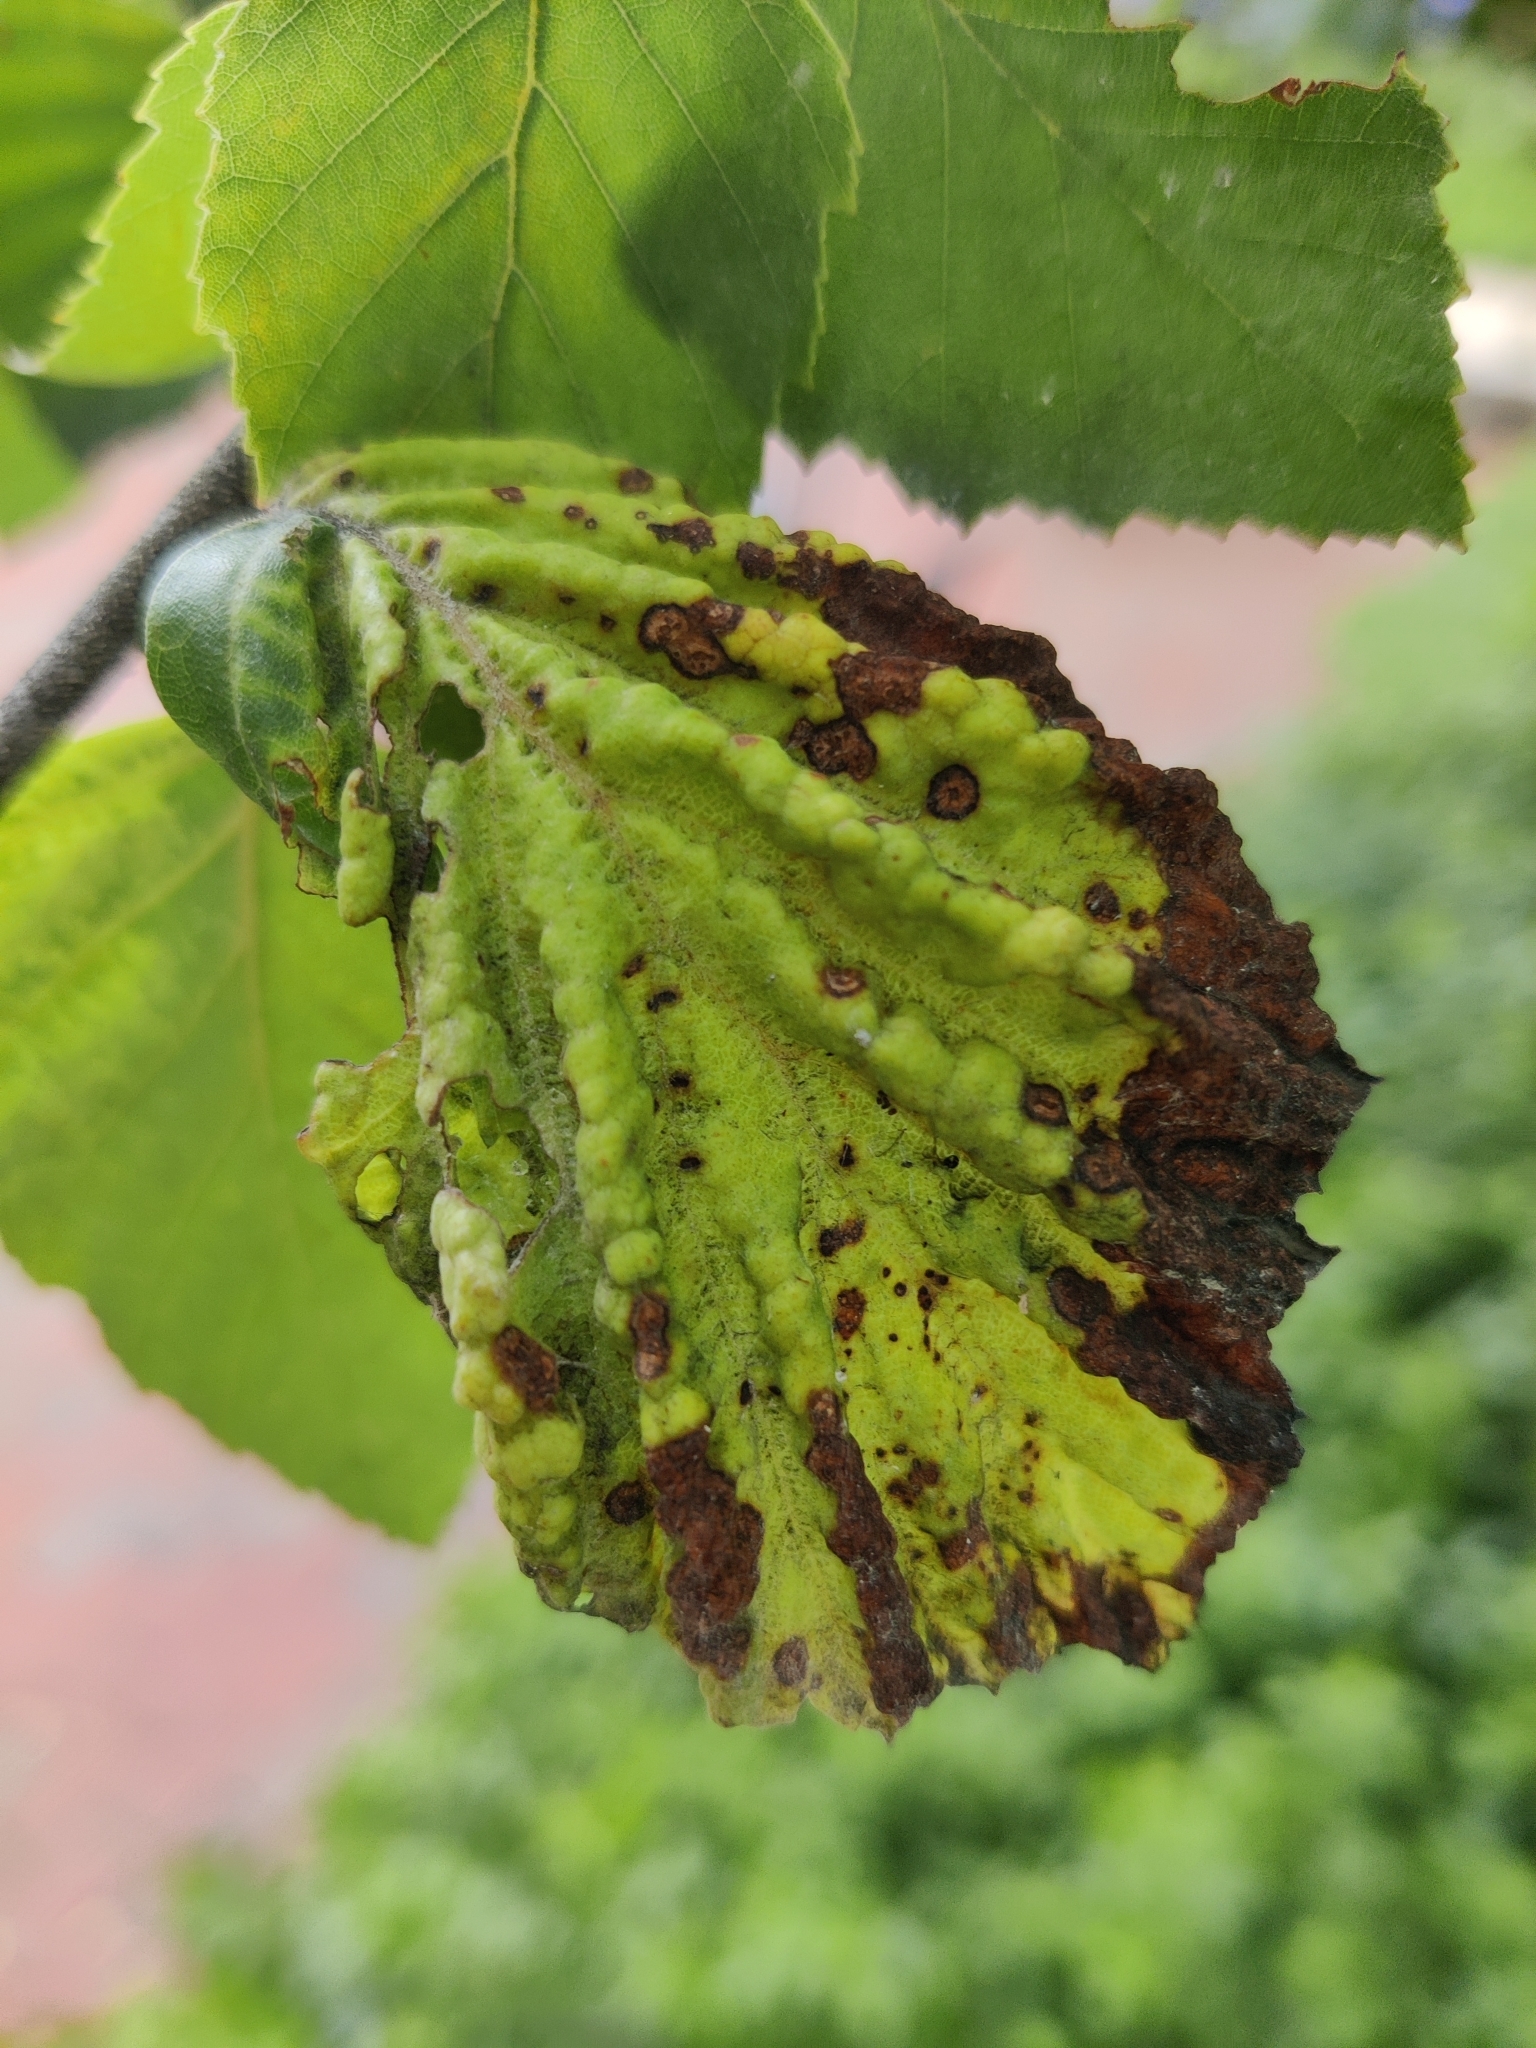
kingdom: Animalia
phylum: Arthropoda
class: Insecta
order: Hemiptera
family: Aphididae
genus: Hamamelistes
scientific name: Hamamelistes spinosus
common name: Witch hazel gall aphid
